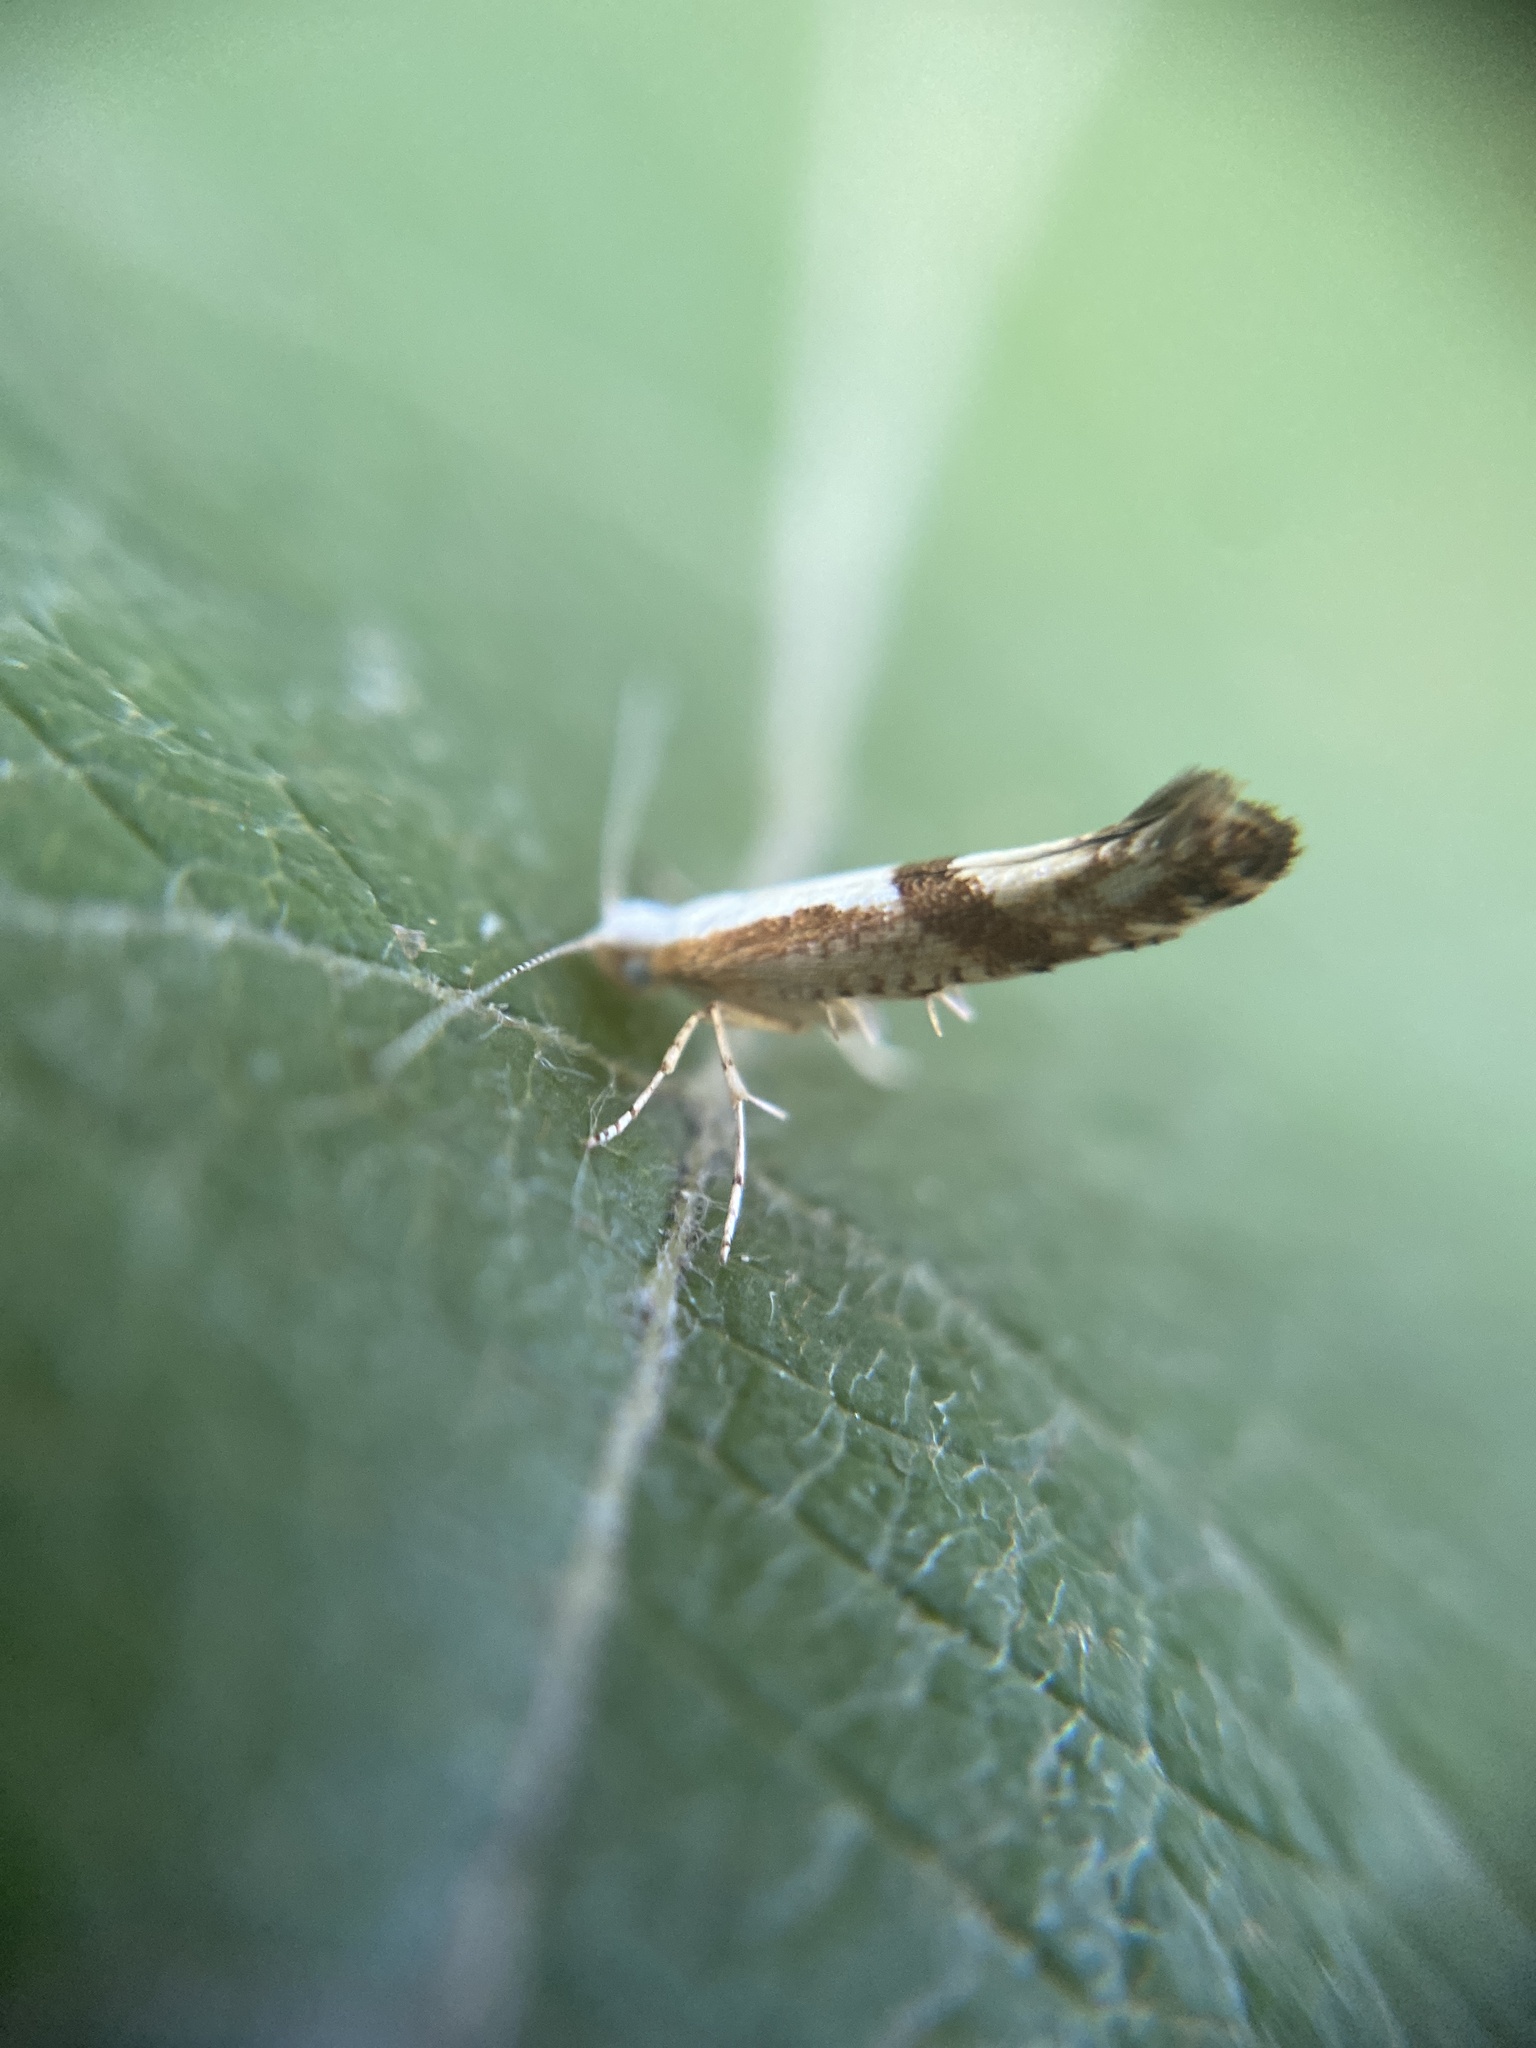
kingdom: Animalia
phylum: Arthropoda
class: Insecta
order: Lepidoptera
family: Argyresthiidae
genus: Argyresthia
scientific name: Argyresthia pruniella
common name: Cherry fruit moth
